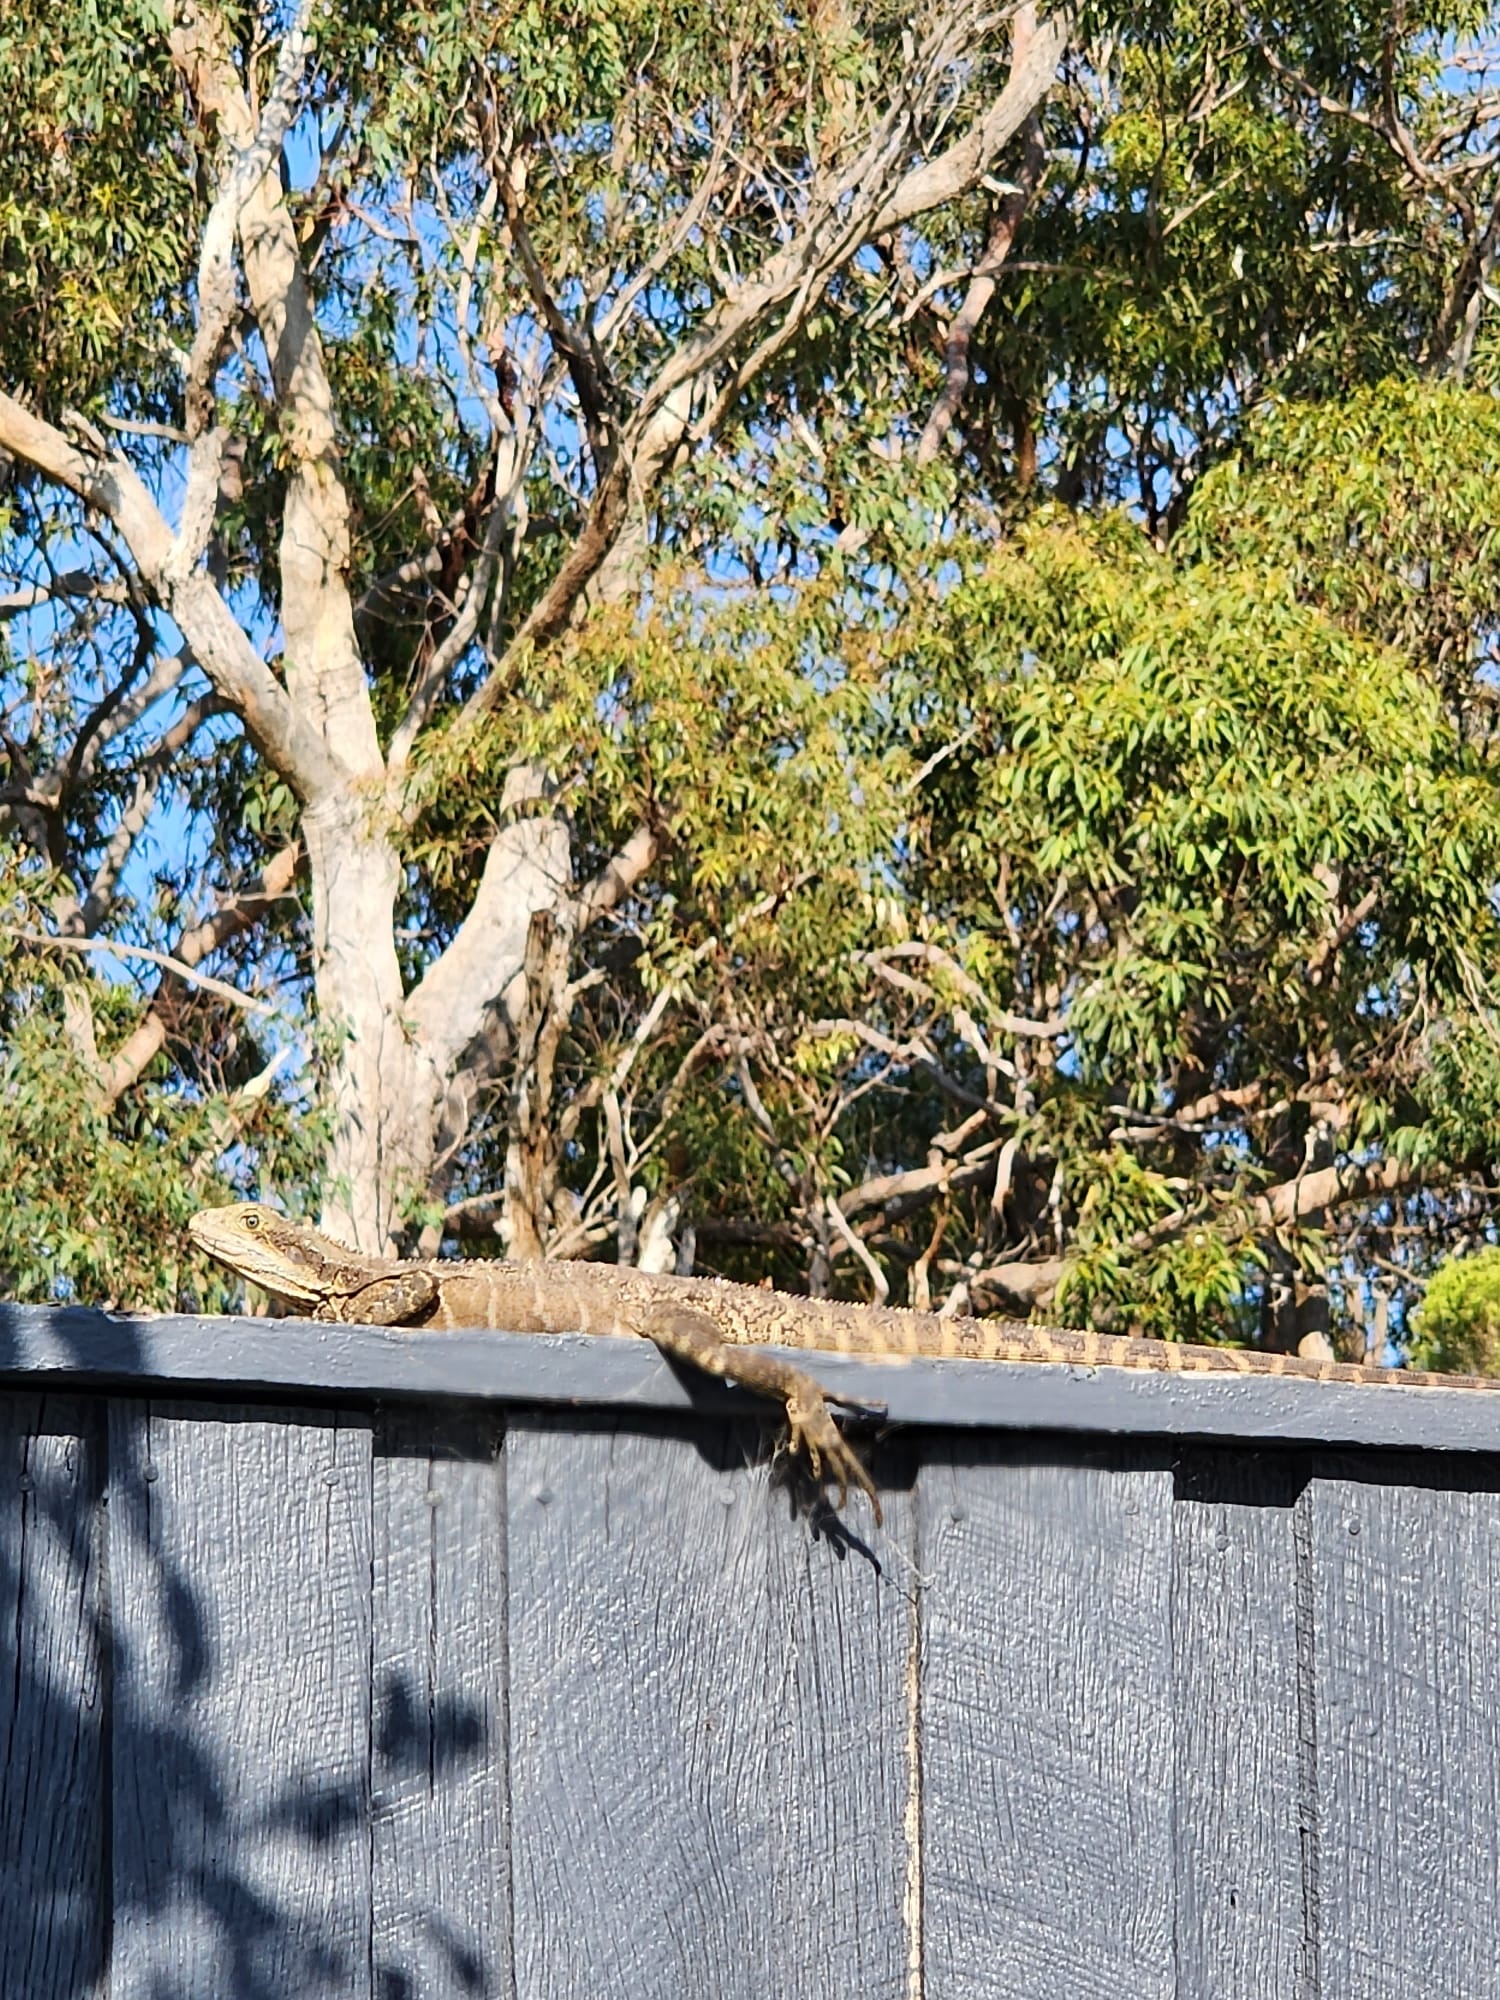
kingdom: Animalia
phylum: Chordata
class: Squamata
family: Agamidae
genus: Intellagama
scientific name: Intellagama lesueurii
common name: Eastern water dragon
